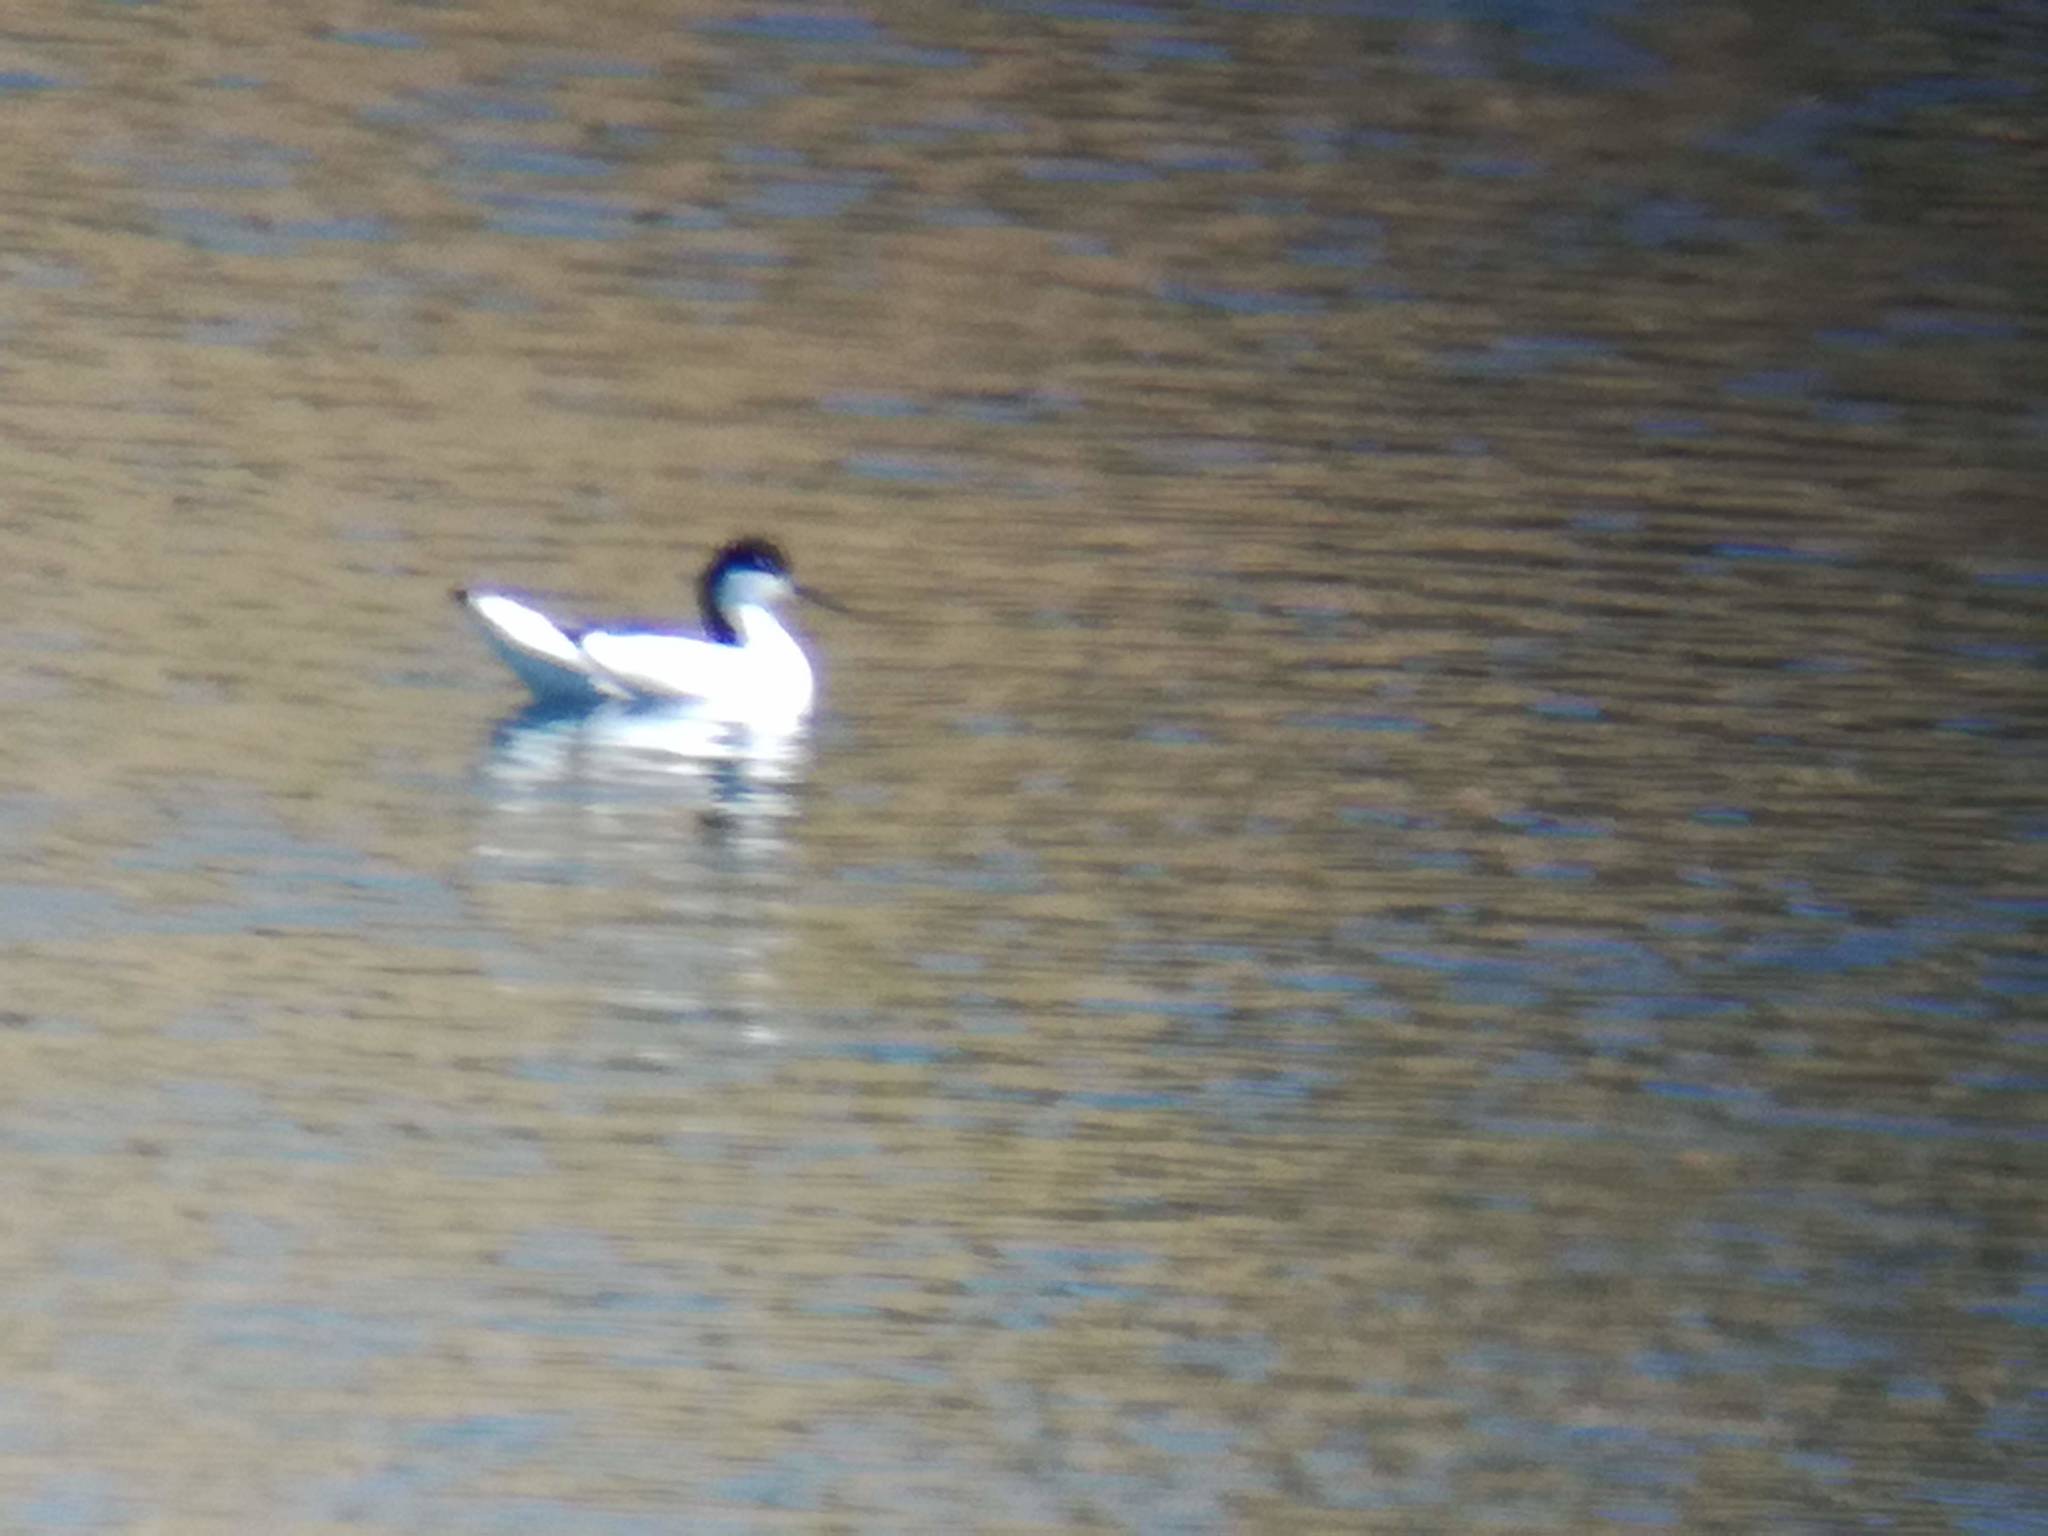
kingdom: Animalia
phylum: Chordata
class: Aves
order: Charadriiformes
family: Recurvirostridae
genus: Recurvirostra
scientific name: Recurvirostra avosetta
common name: Pied avocet
